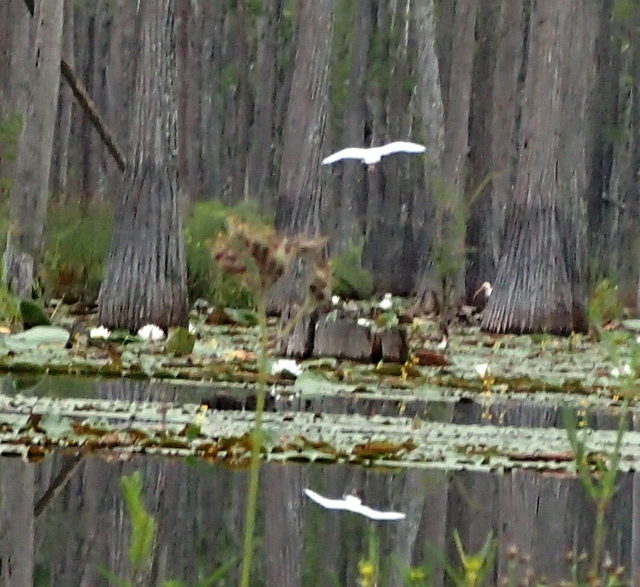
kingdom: Animalia
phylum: Chordata
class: Aves
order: Pelecaniformes
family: Threskiornithidae
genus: Eudocimus
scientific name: Eudocimus albus
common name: White ibis
